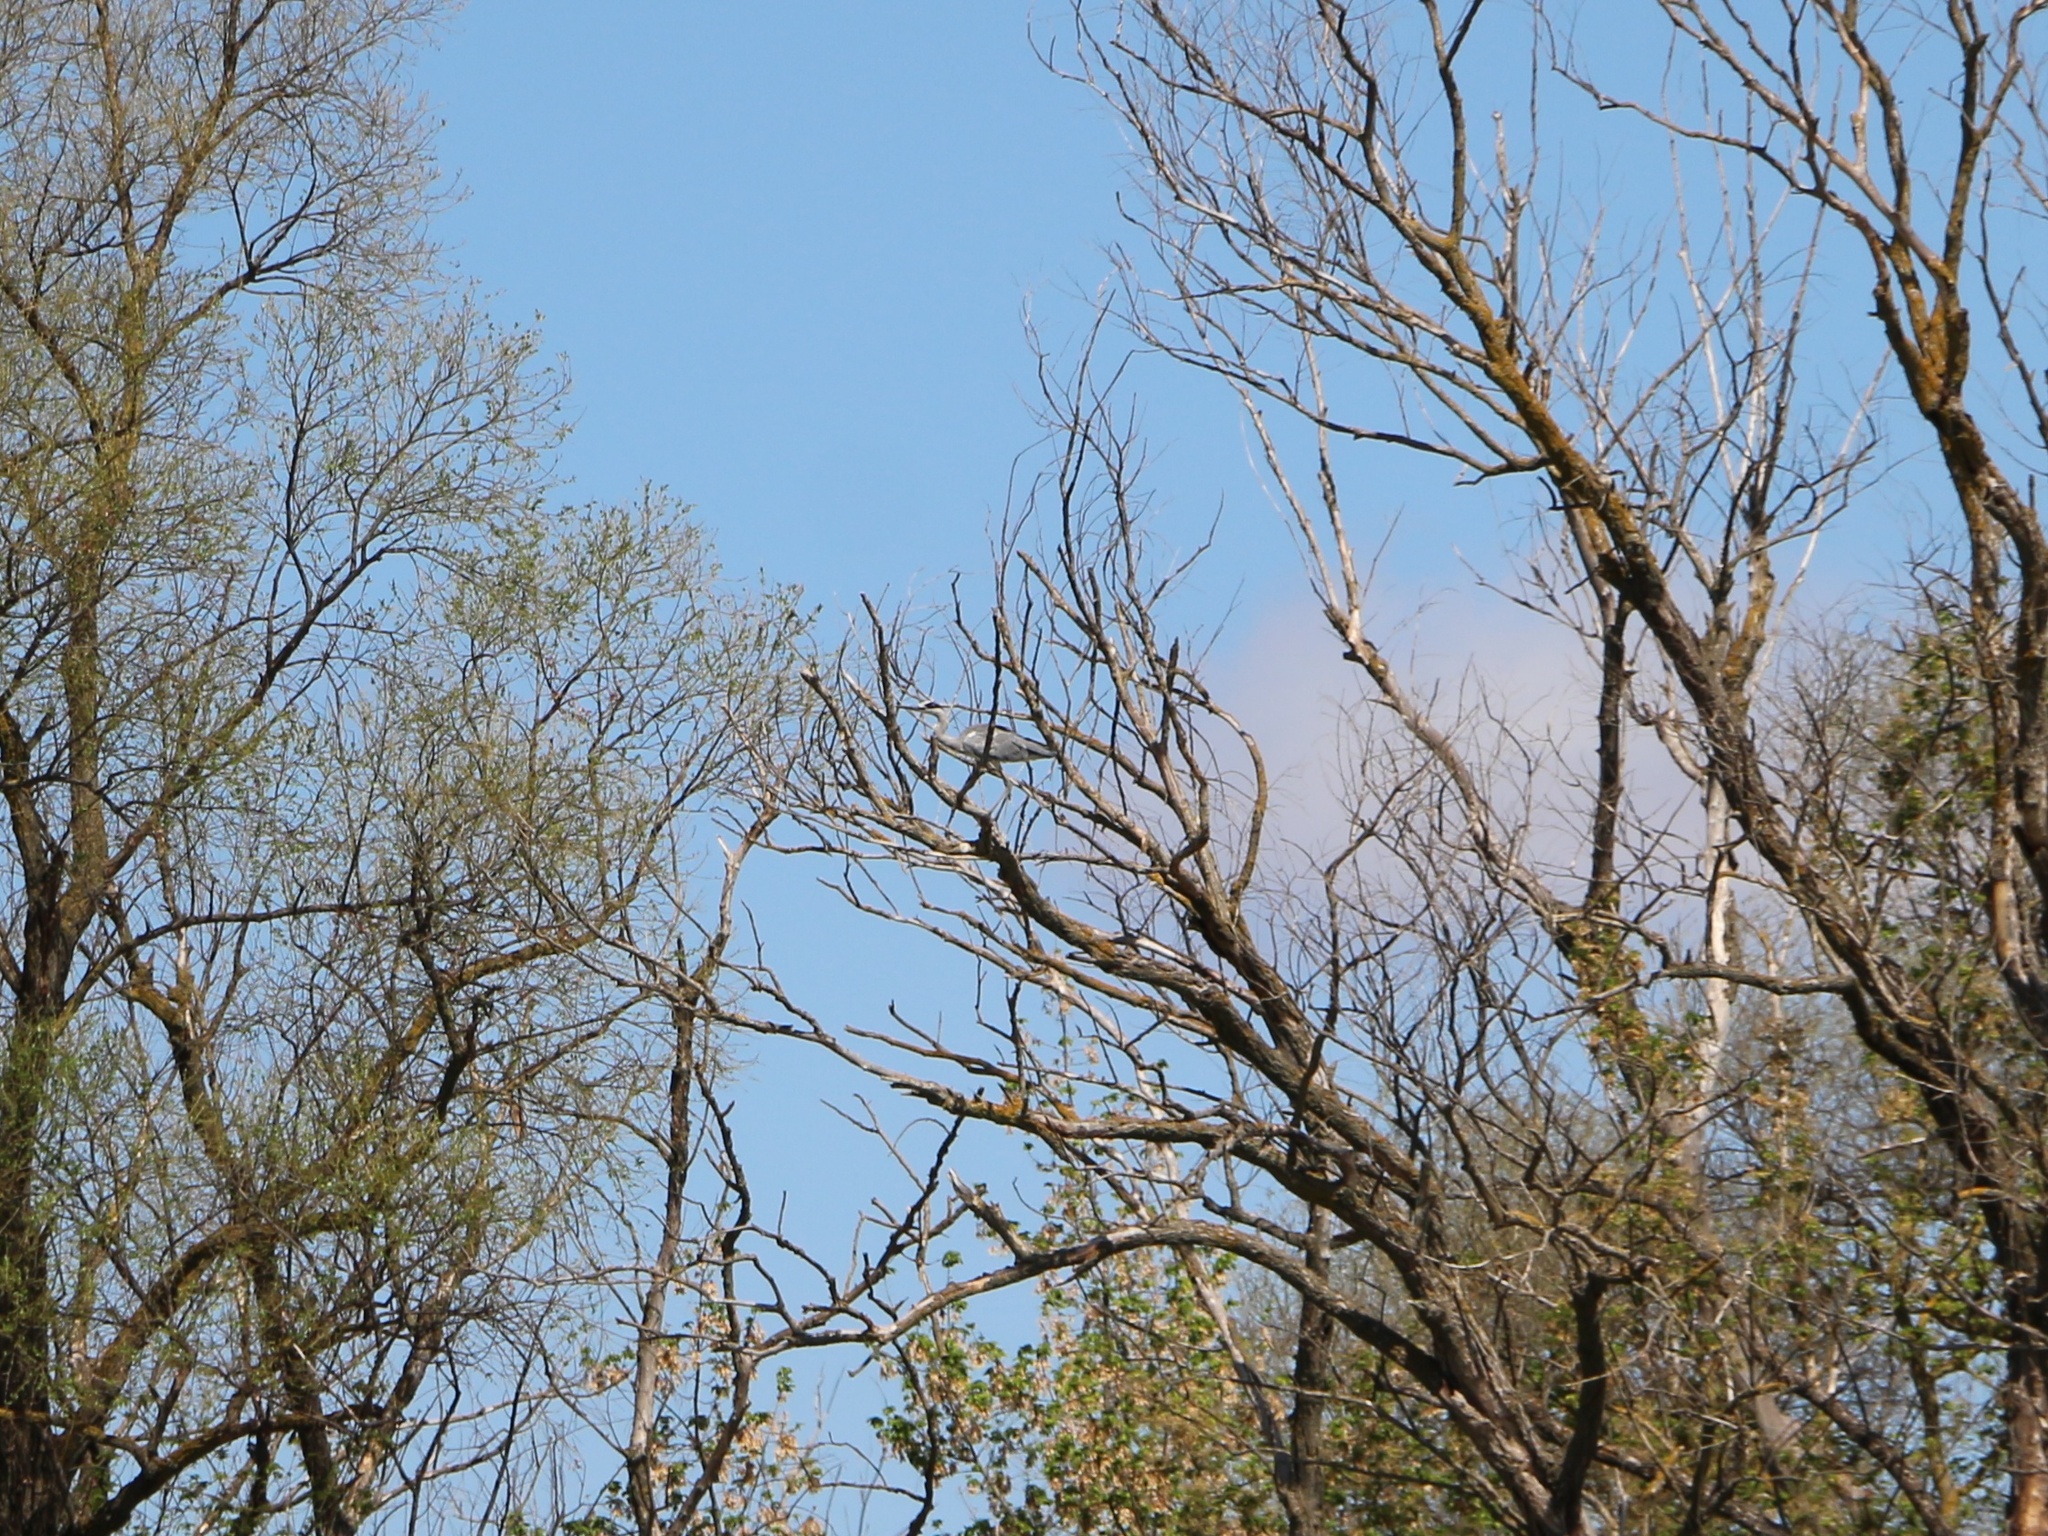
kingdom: Animalia
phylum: Chordata
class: Aves
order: Pelecaniformes
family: Ardeidae
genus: Ardea
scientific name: Ardea cinerea
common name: Grey heron
